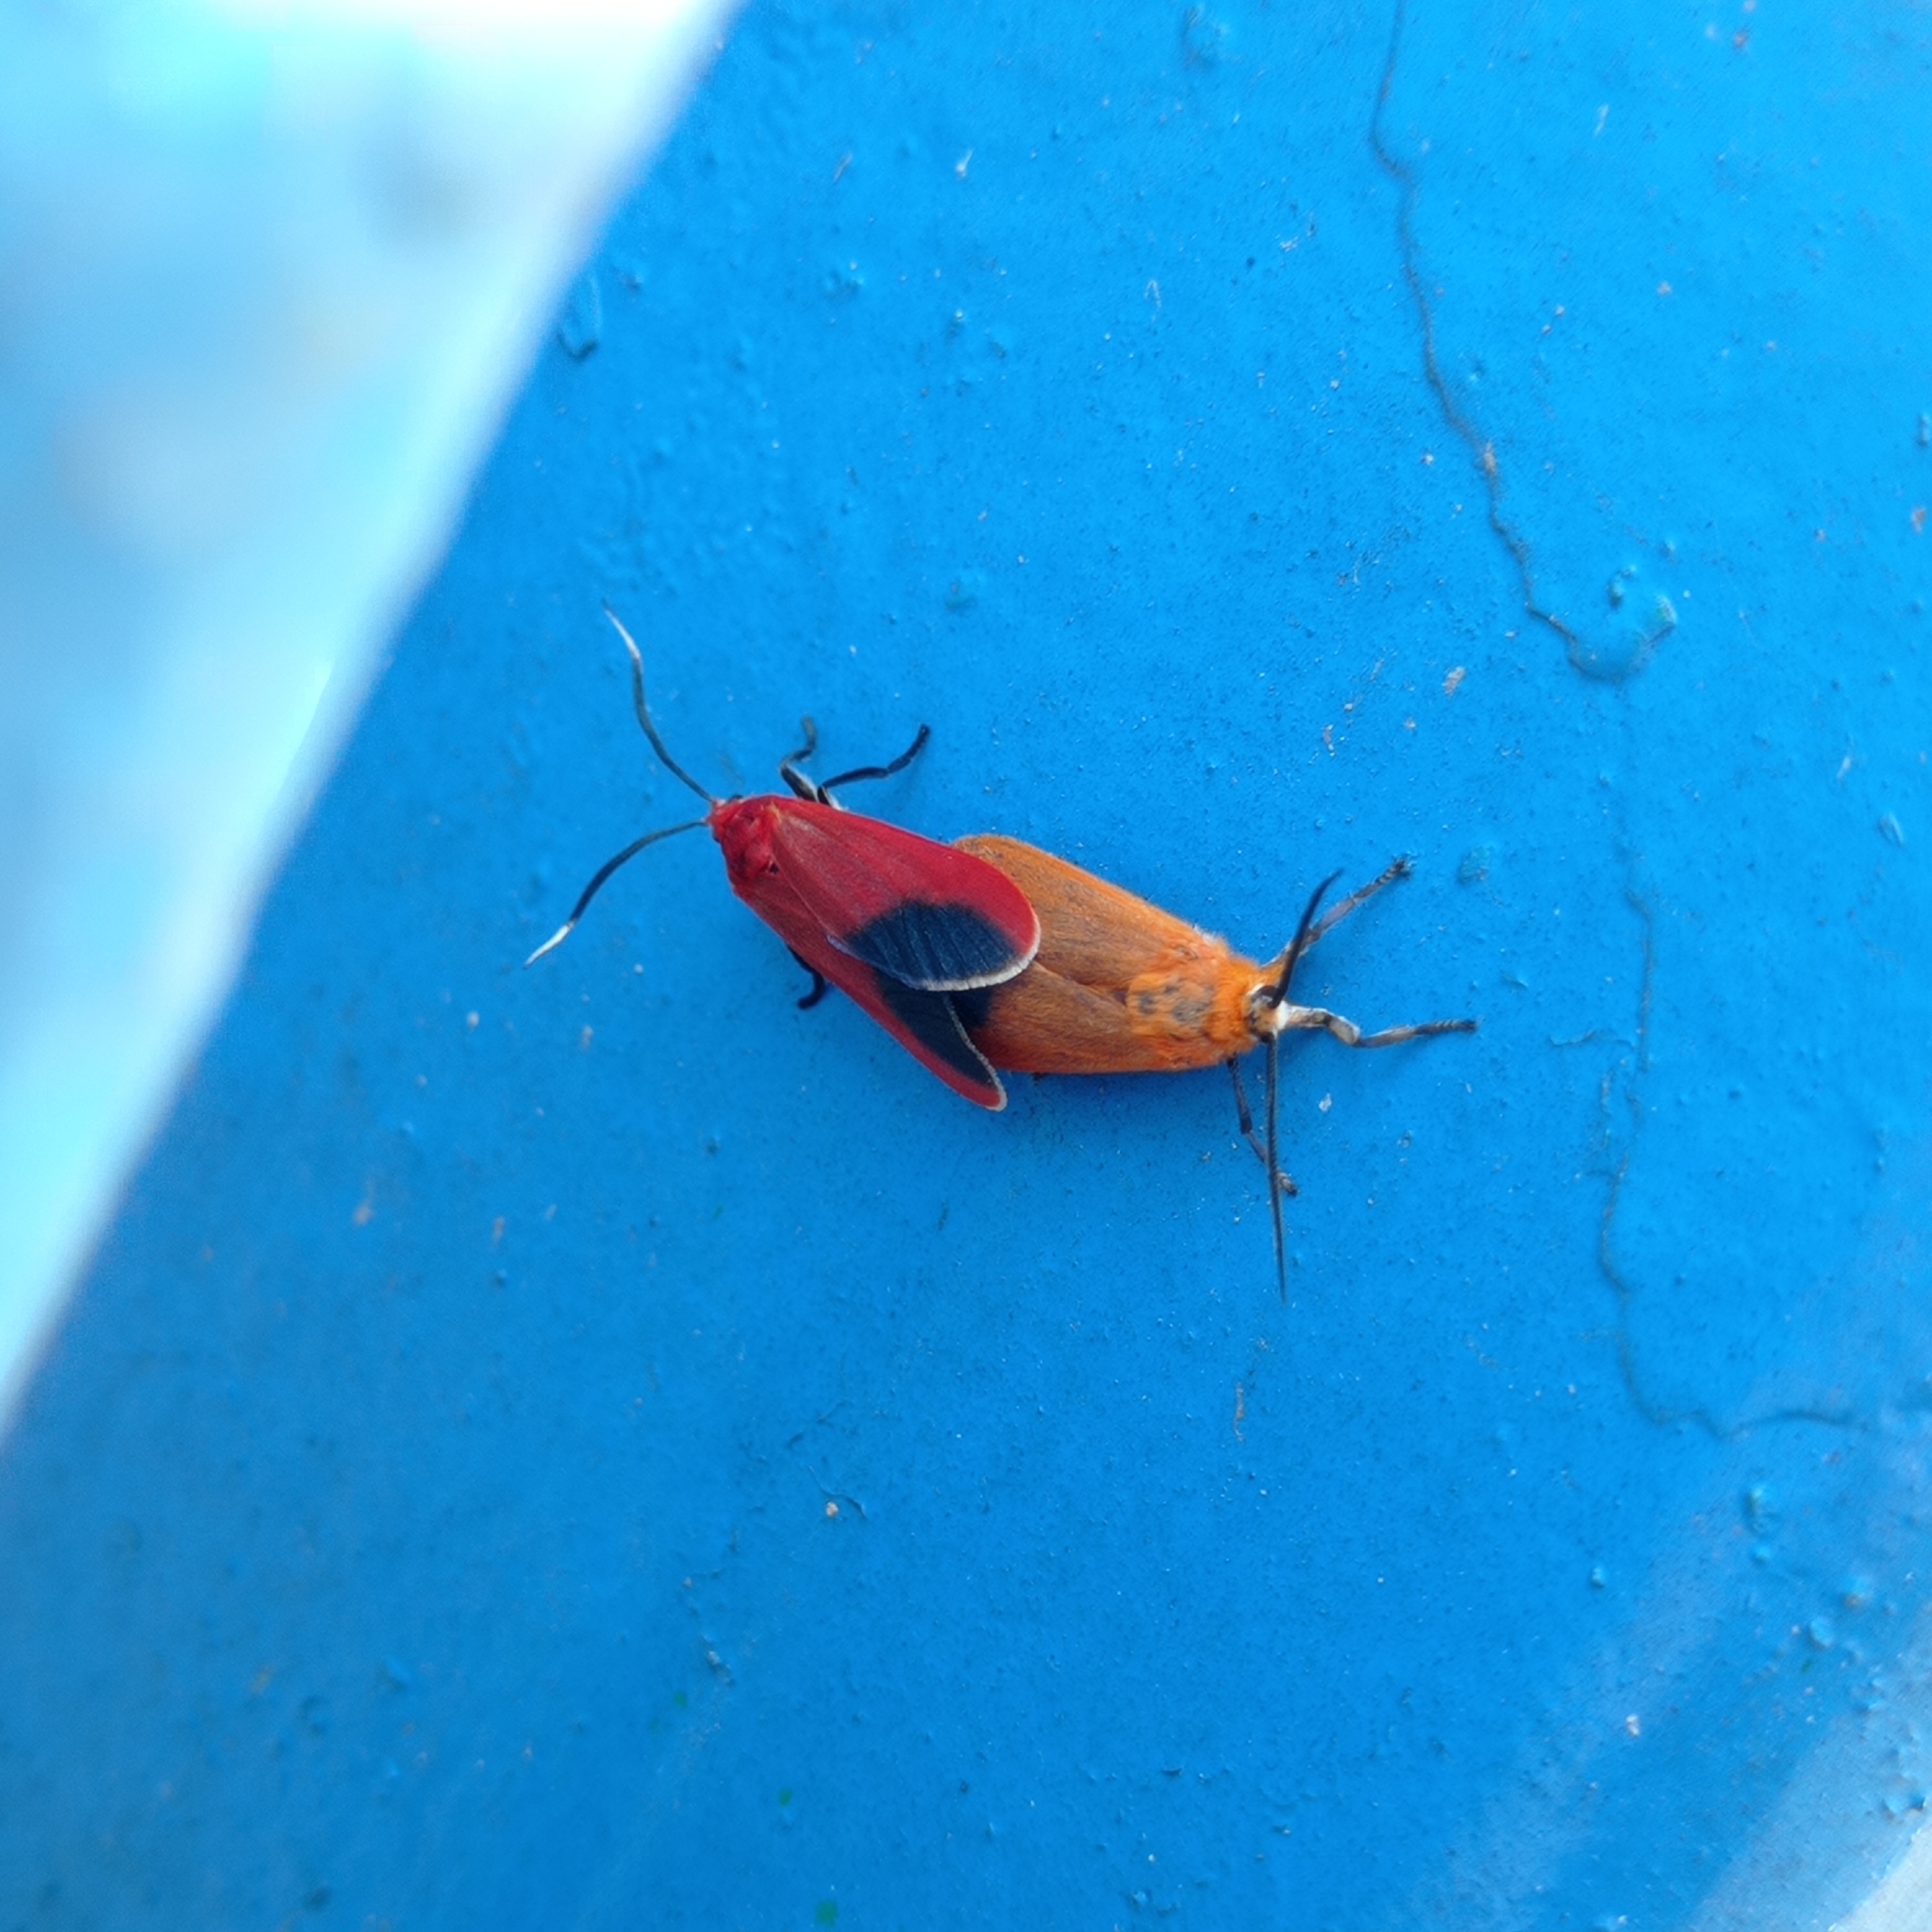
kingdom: Animalia
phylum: Arthropoda
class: Insecta
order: Lepidoptera
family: Phaudidae
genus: Phauda
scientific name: Phauda flammans
